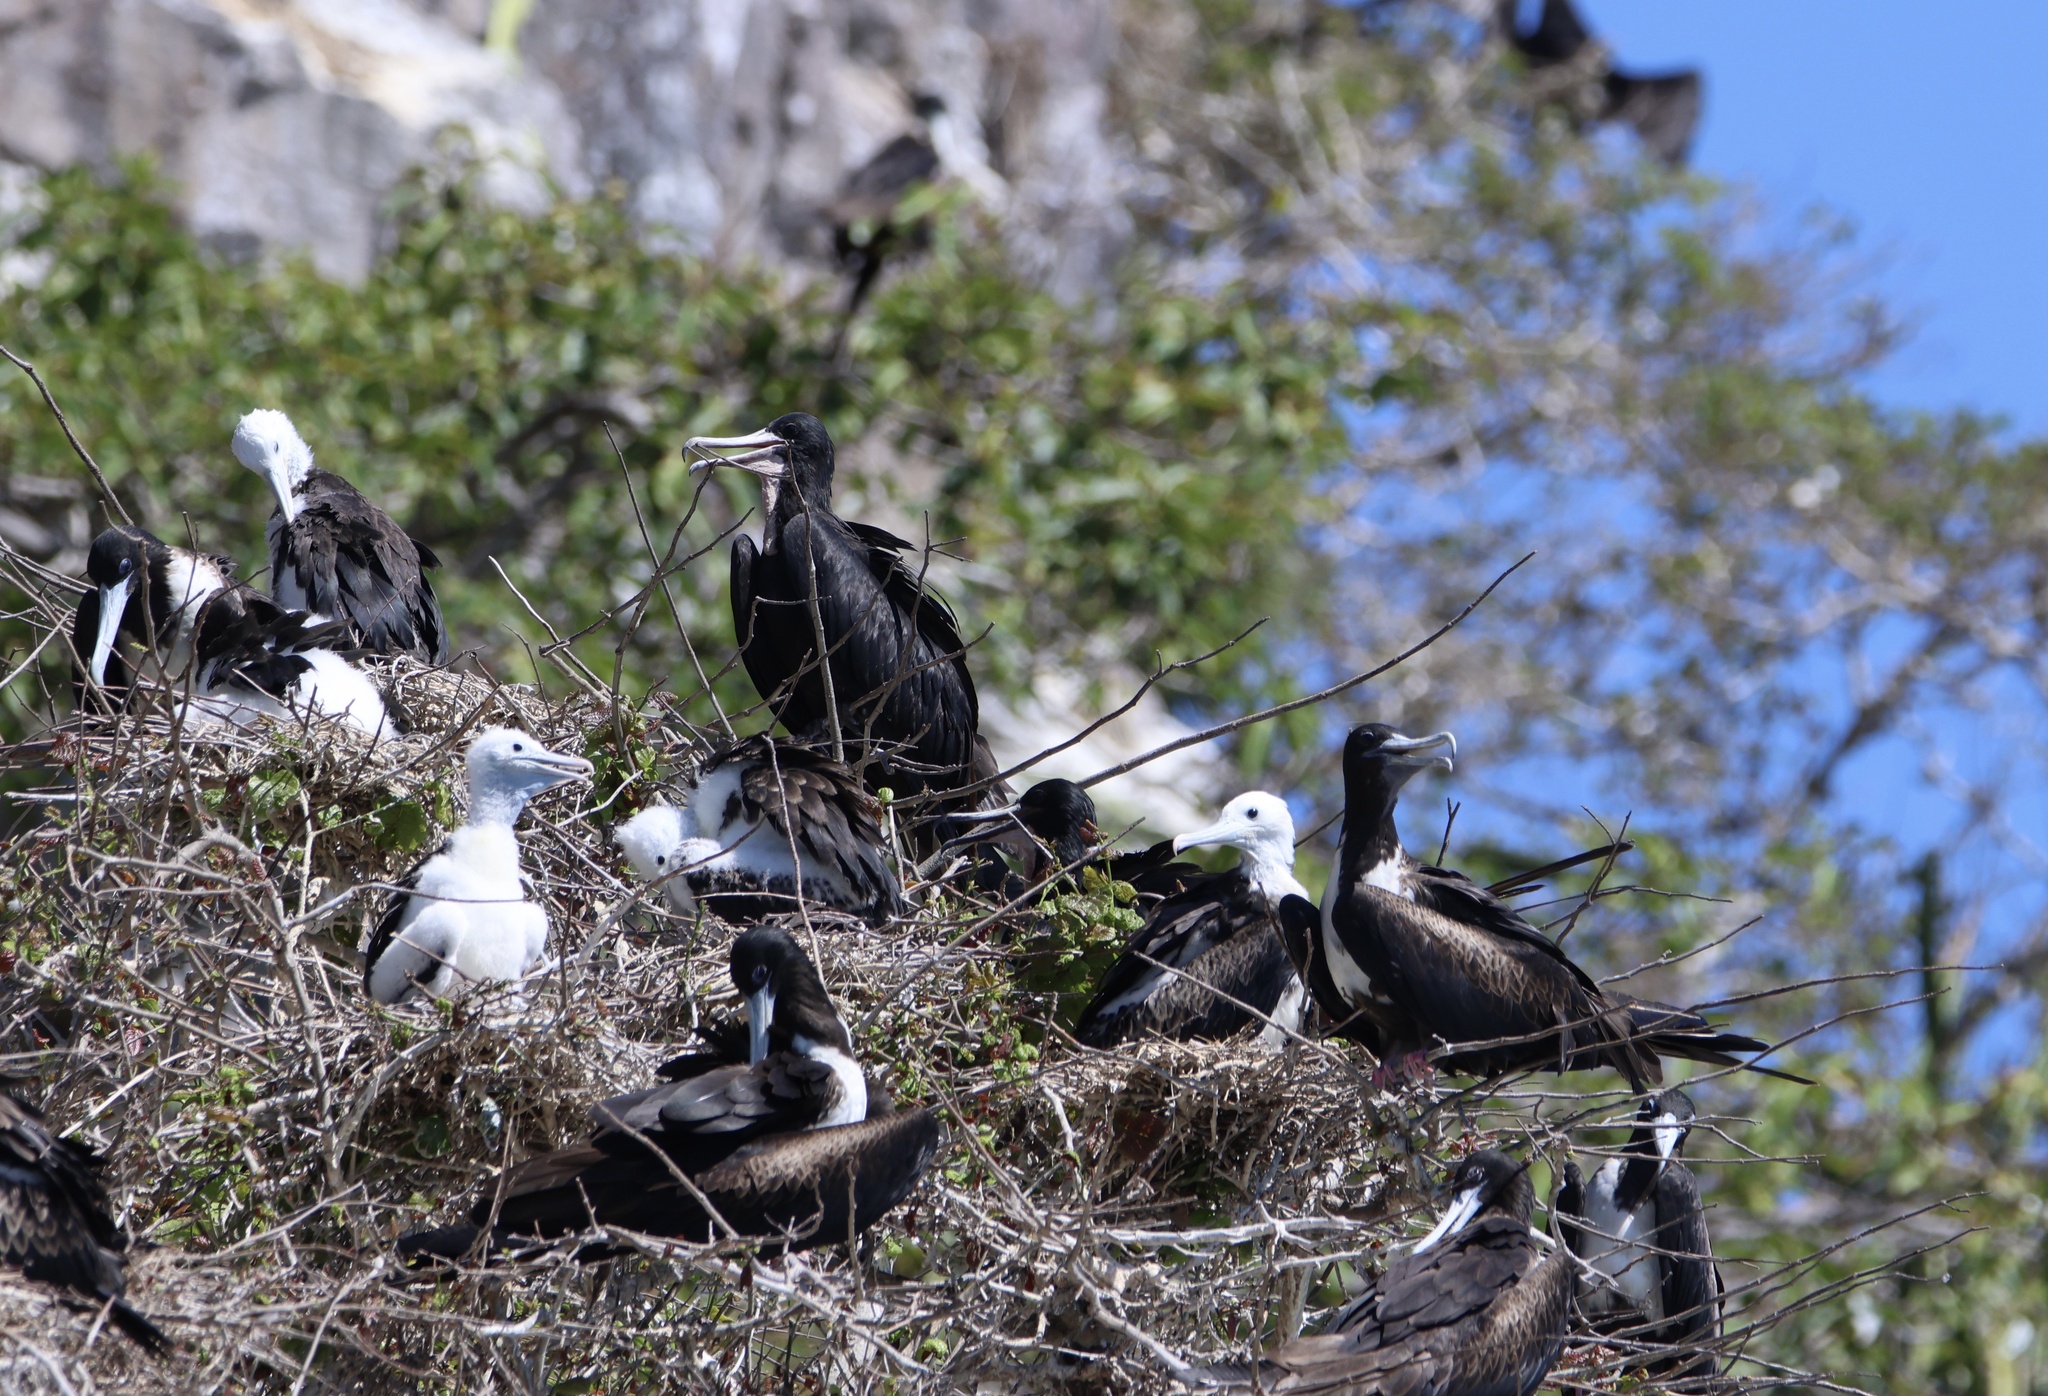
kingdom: Animalia
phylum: Chordata
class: Aves
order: Suliformes
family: Fregatidae
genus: Fregata
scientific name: Fregata magnificens
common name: Magnificent frigatebird
